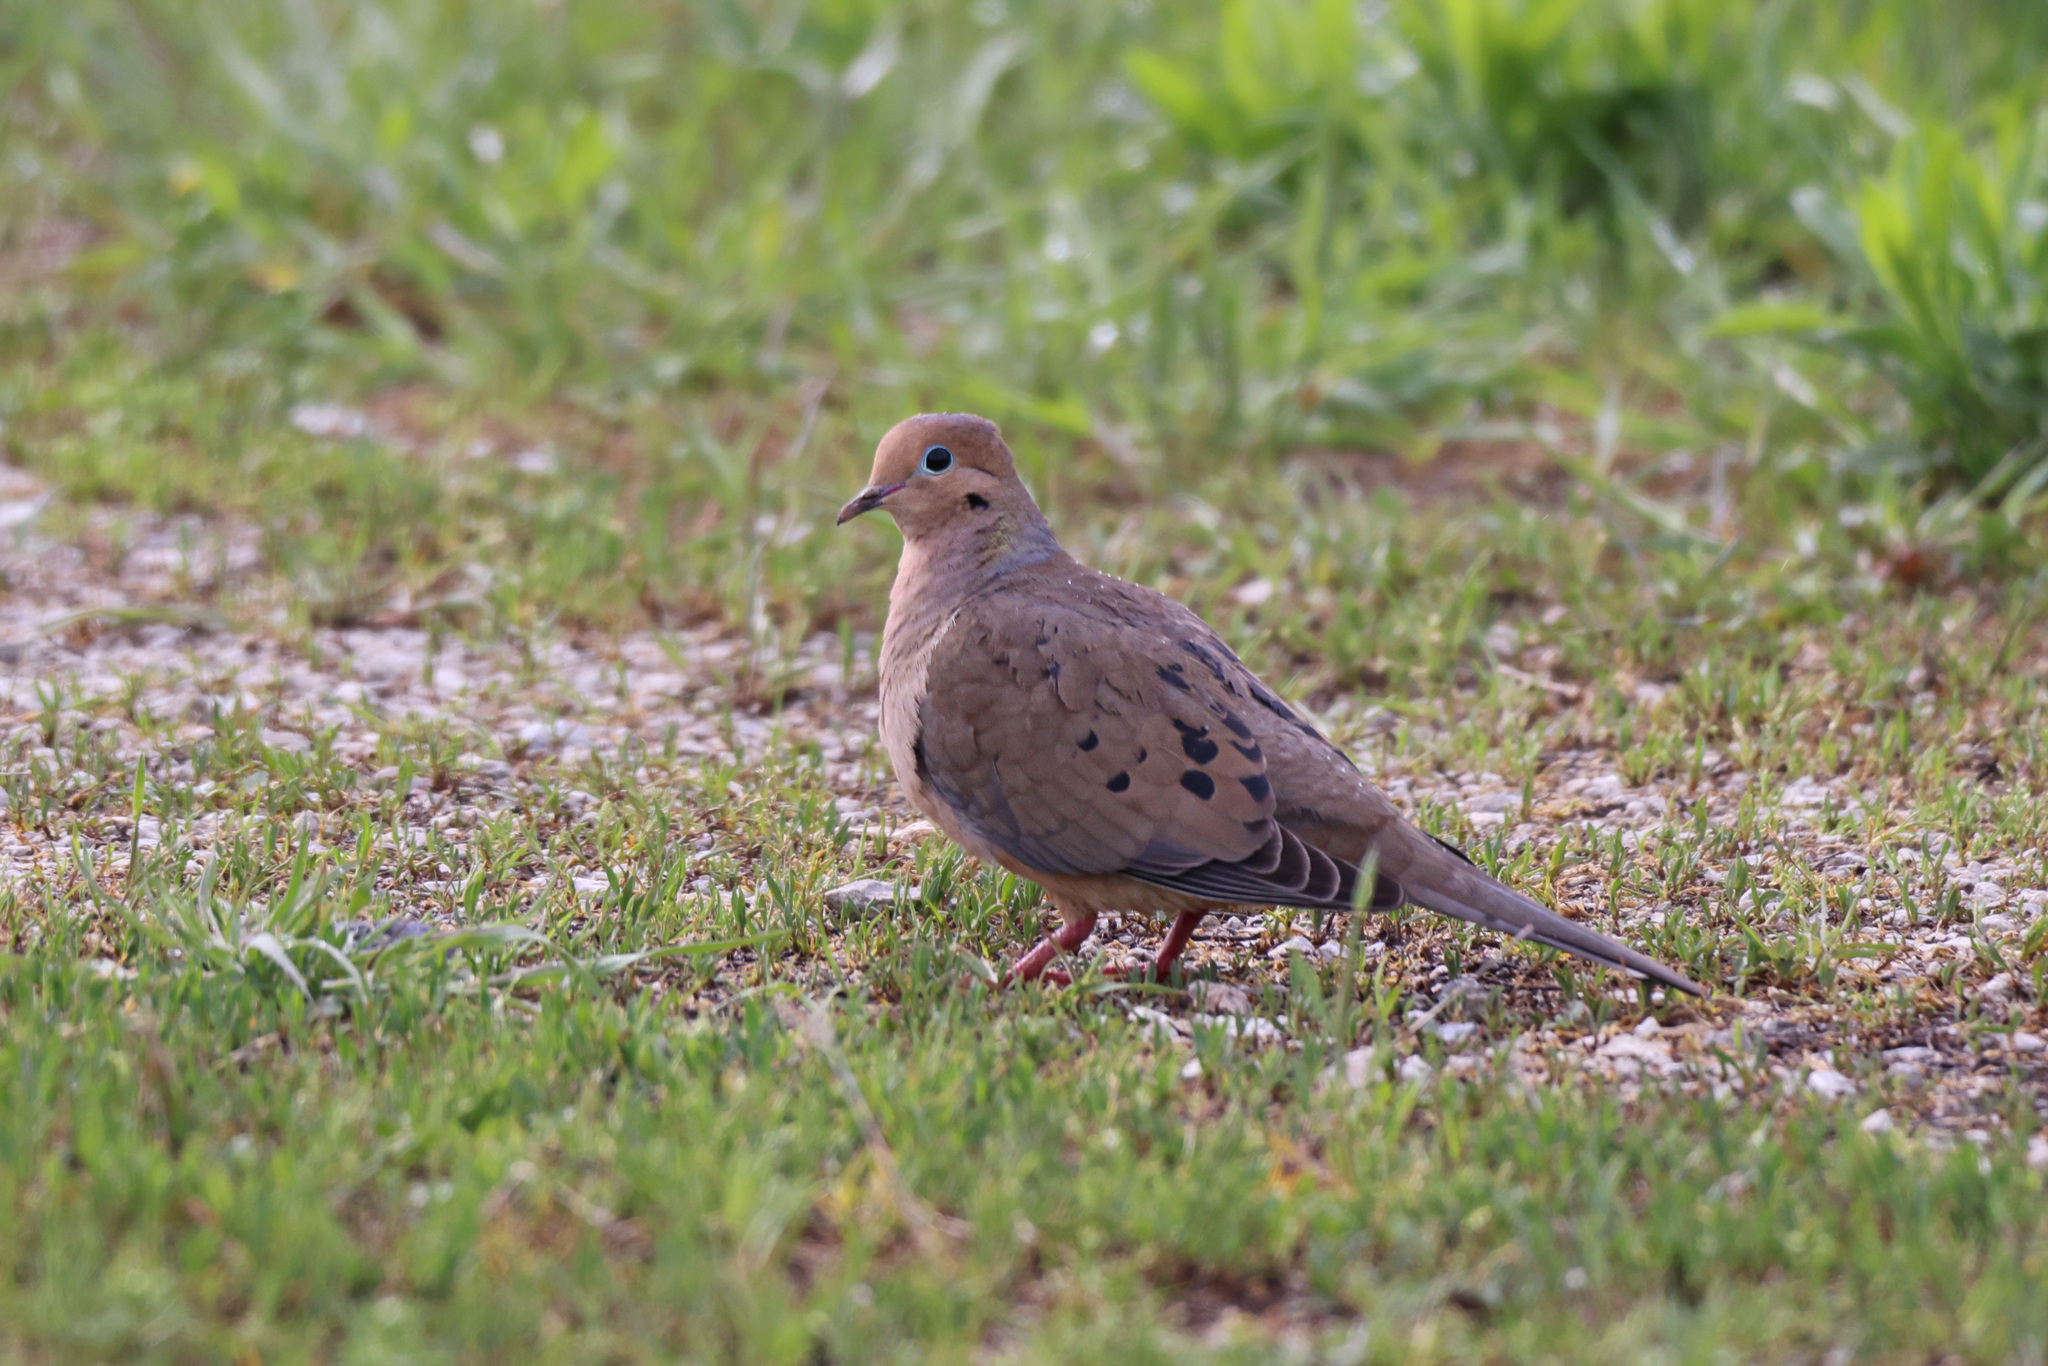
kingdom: Animalia
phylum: Chordata
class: Aves
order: Columbiformes
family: Columbidae
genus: Zenaida
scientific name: Zenaida macroura
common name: Mourning dove
